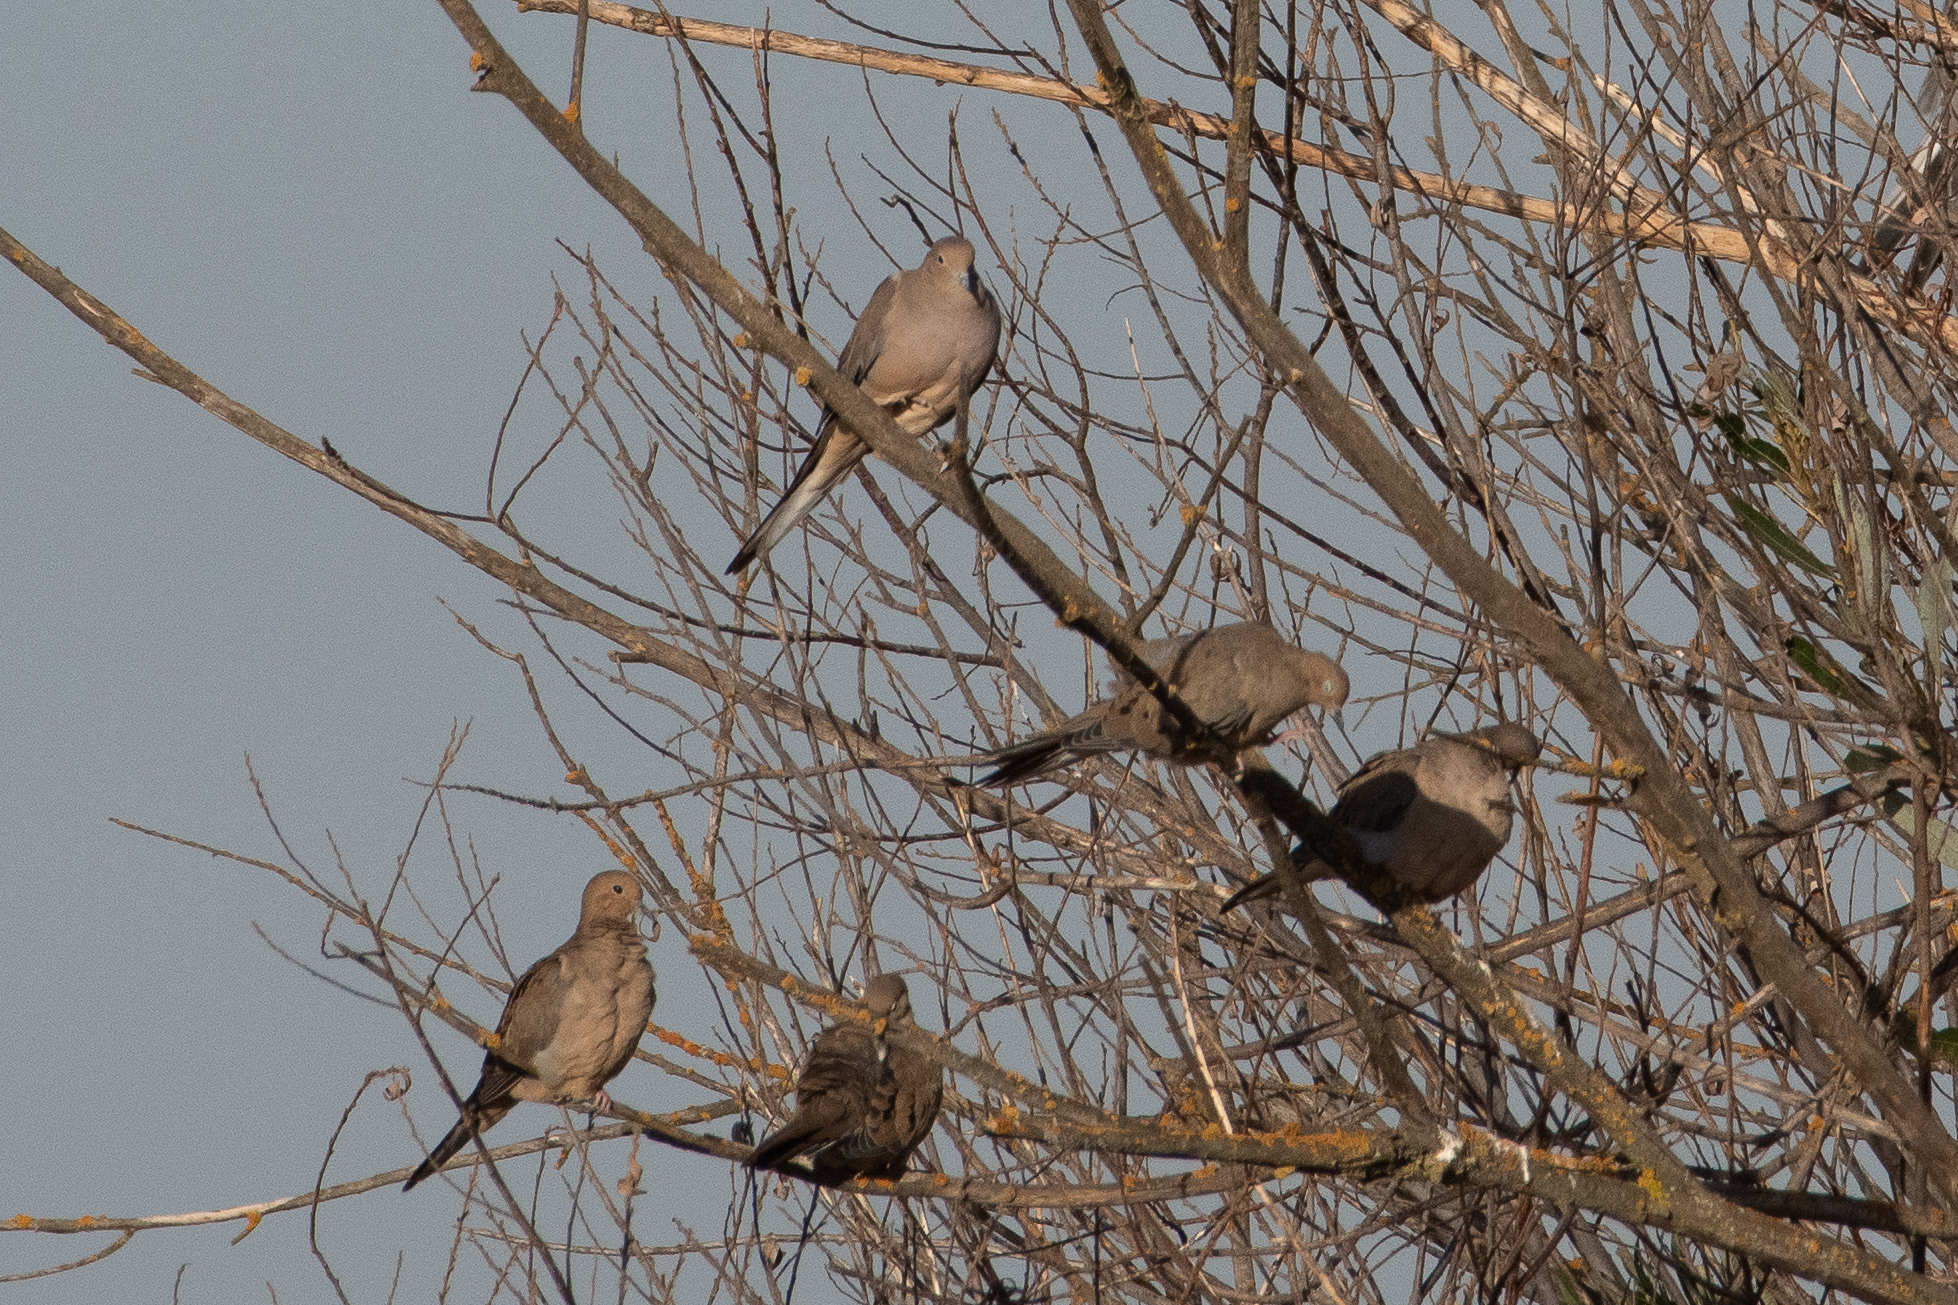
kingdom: Animalia
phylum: Chordata
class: Aves
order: Columbiformes
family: Columbidae
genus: Zenaida
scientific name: Zenaida macroura
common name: Mourning dove
